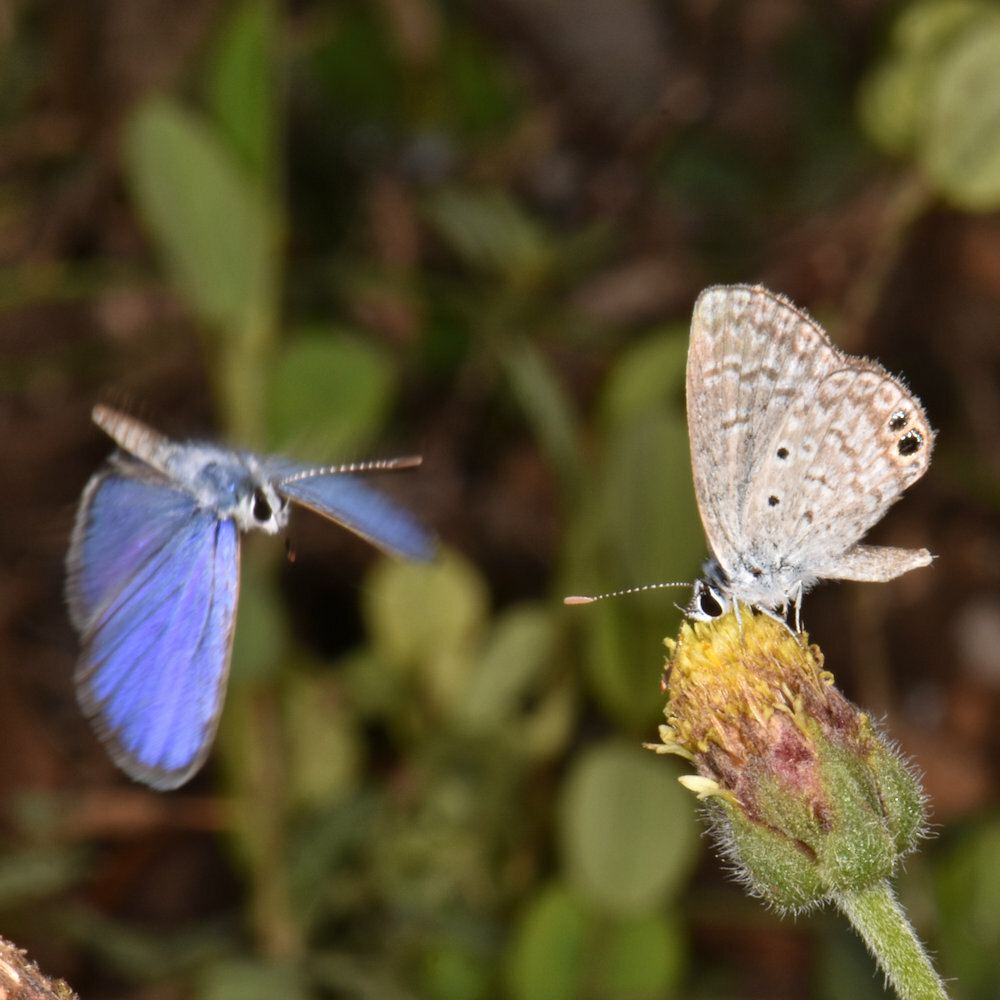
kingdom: Animalia
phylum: Arthropoda
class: Insecta
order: Lepidoptera
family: Lycaenidae
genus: Hemiargus
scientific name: Hemiargus ceraunus
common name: Ceraunus blue
